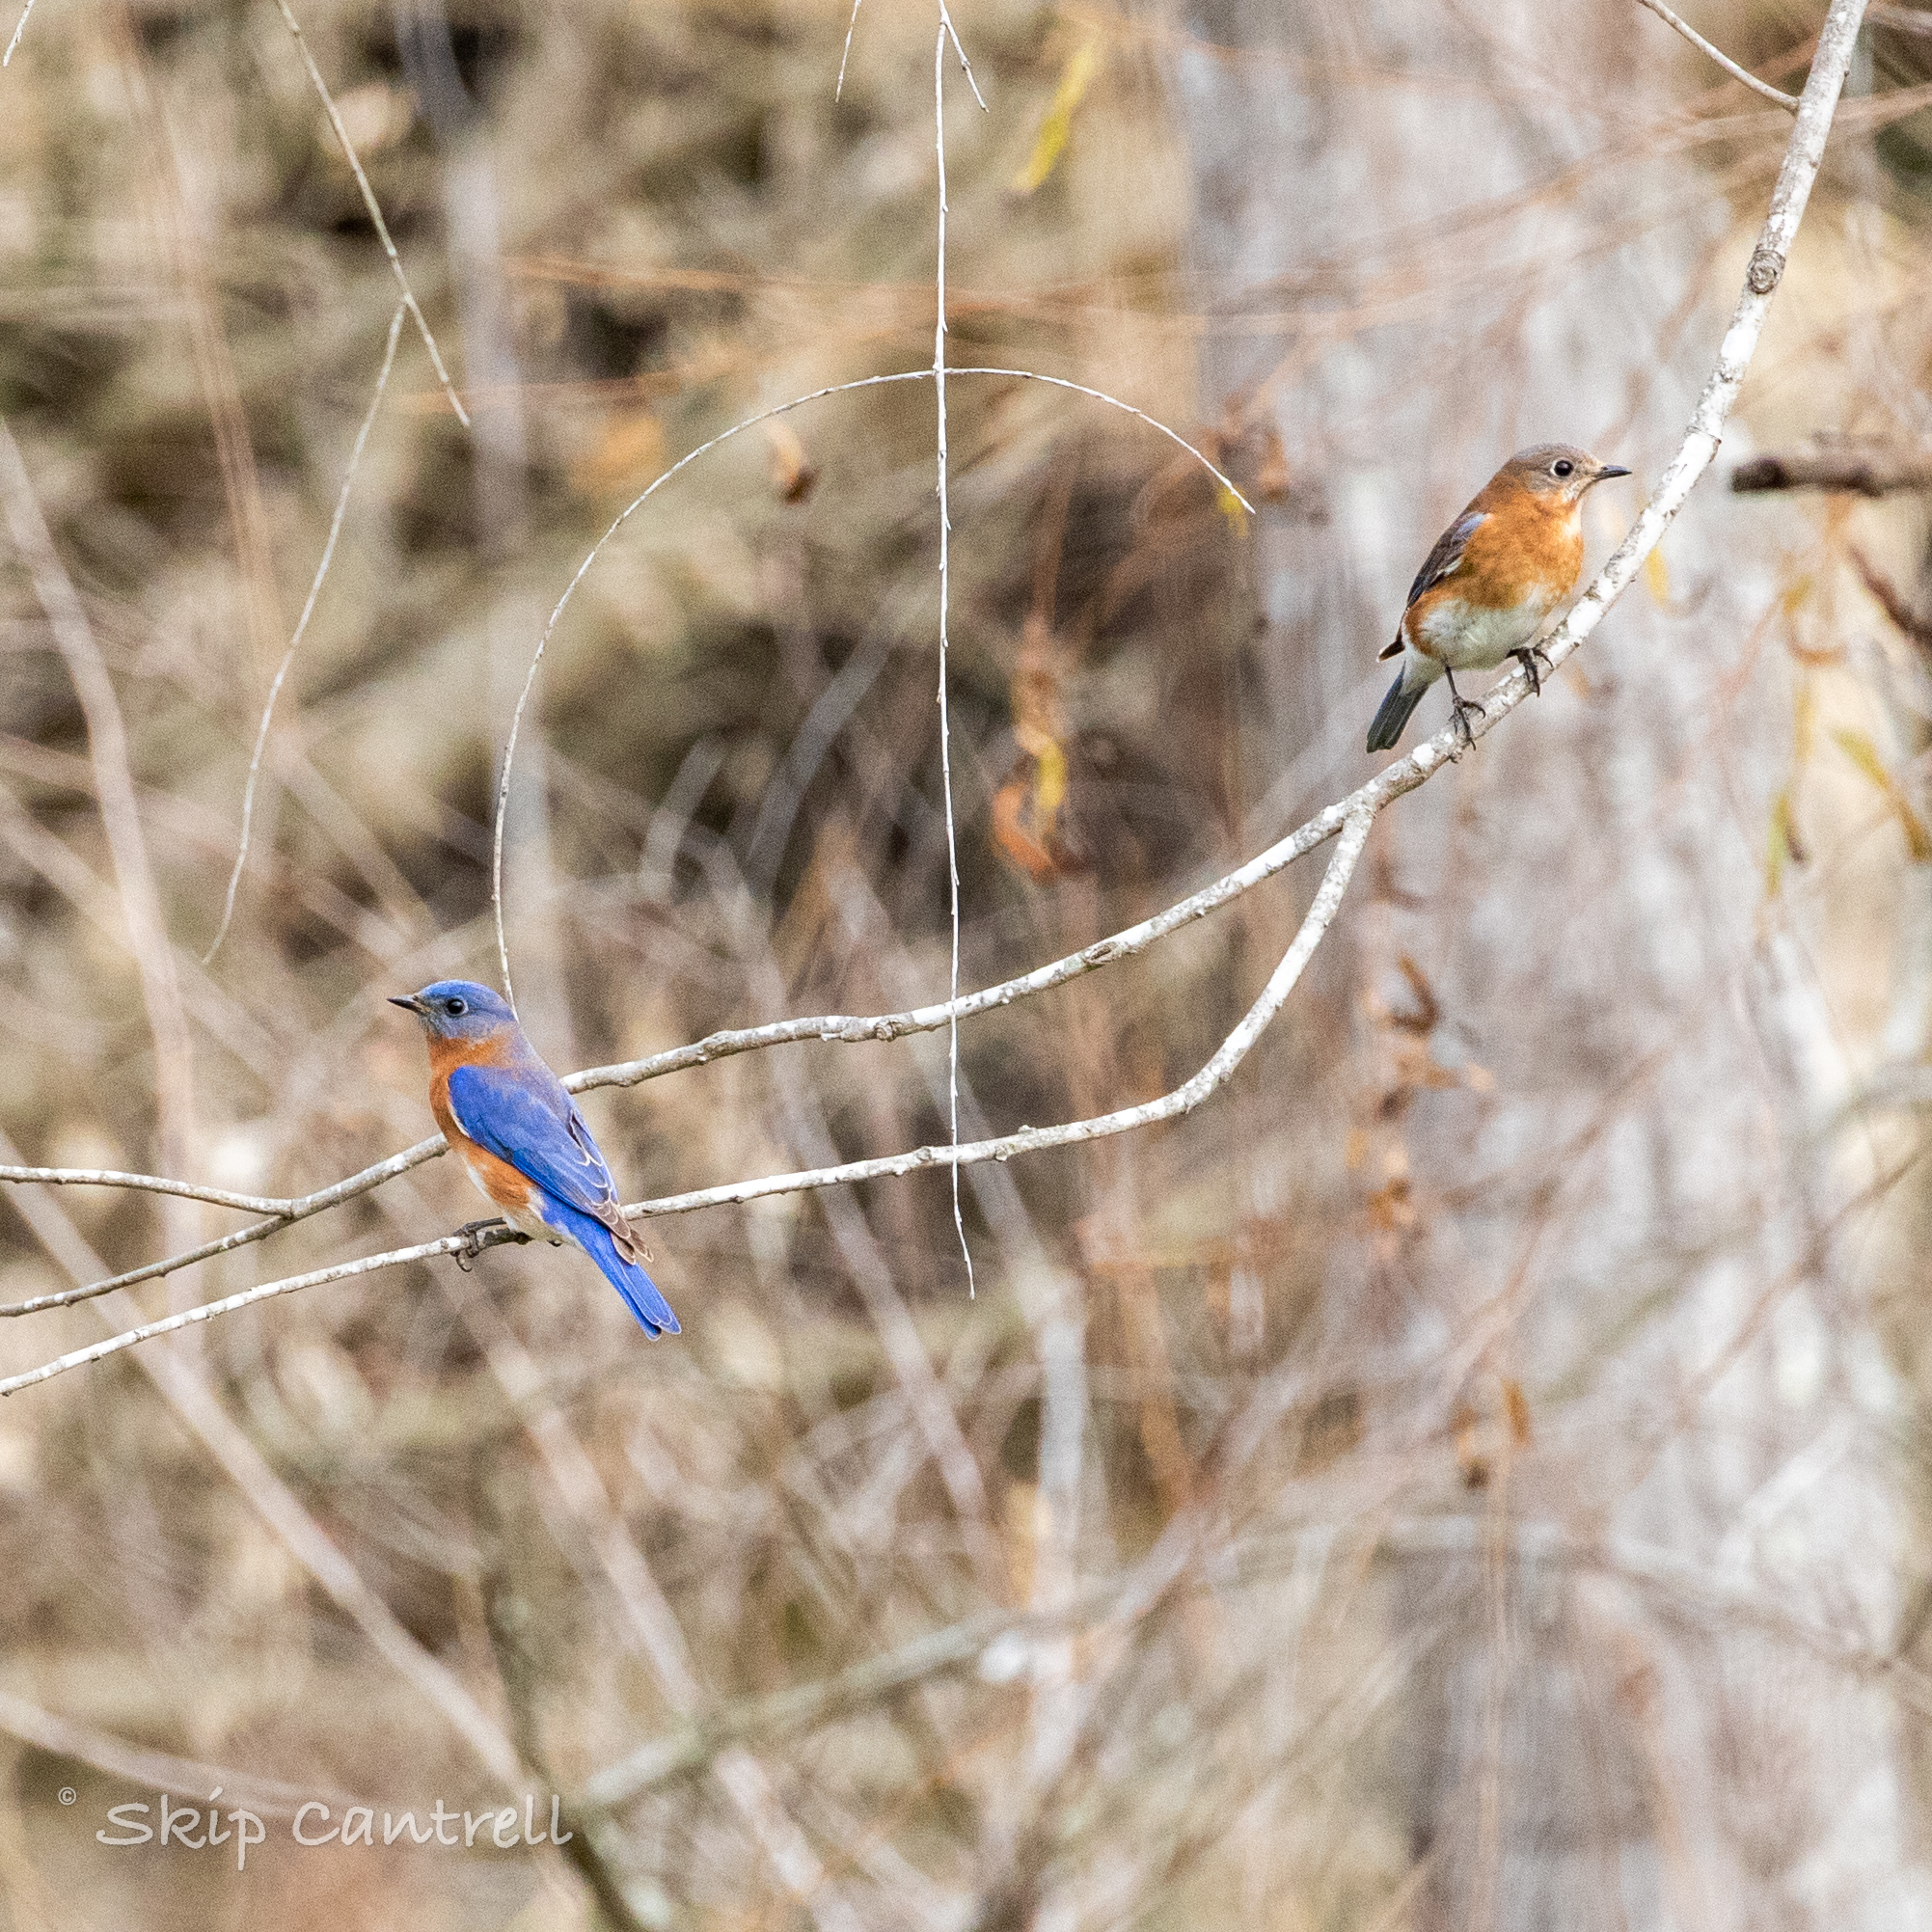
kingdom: Animalia
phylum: Chordata
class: Aves
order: Passeriformes
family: Turdidae
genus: Sialia
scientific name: Sialia sialis
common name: Eastern bluebird
